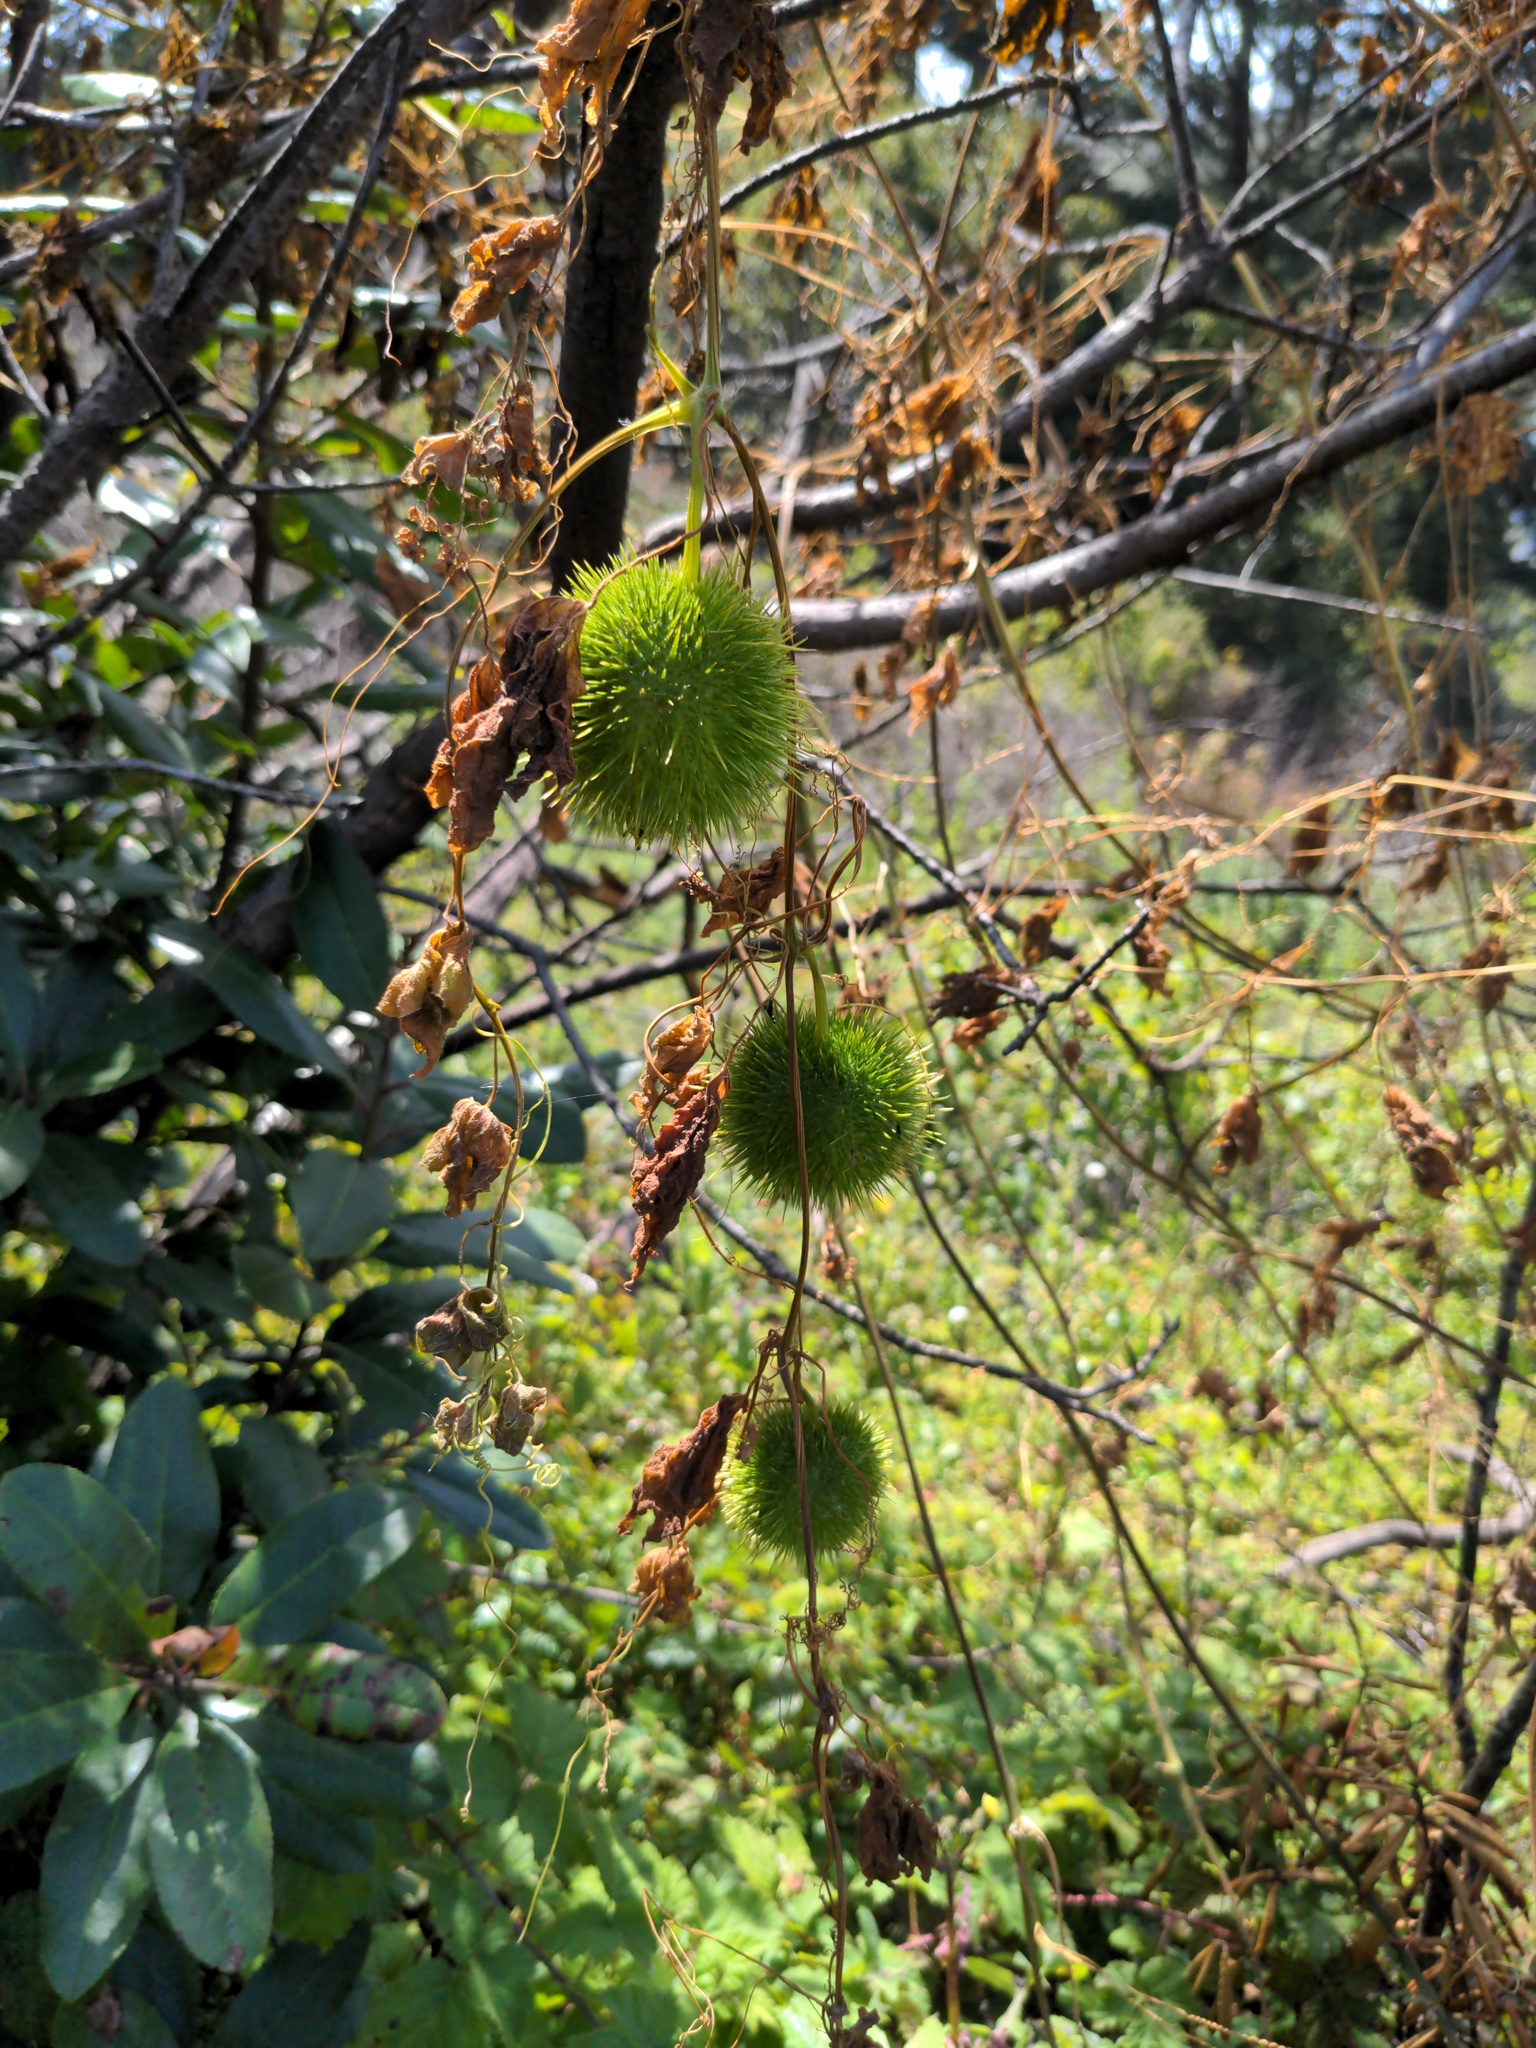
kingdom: Plantae
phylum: Tracheophyta
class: Magnoliopsida
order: Cucurbitales
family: Cucurbitaceae
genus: Marah
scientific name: Marah fabacea
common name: California manroot
